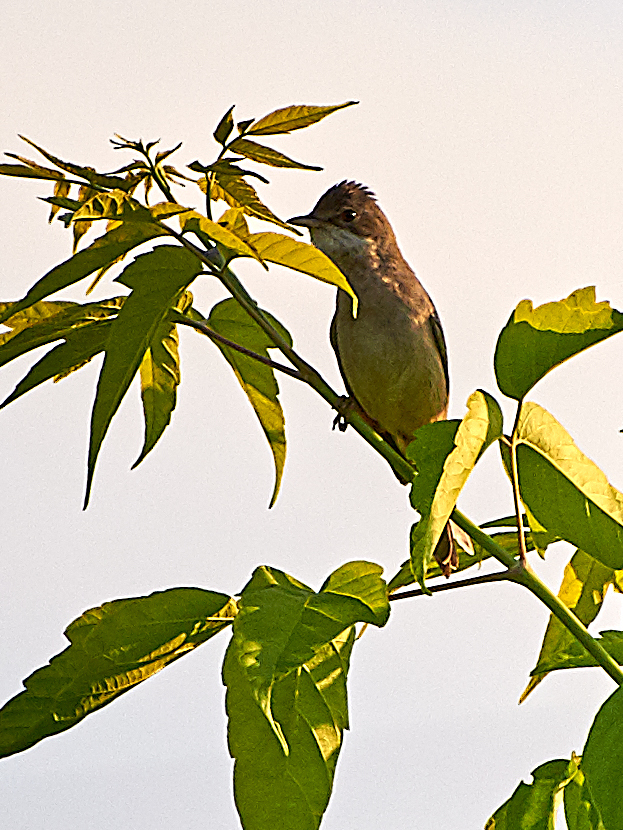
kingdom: Animalia
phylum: Chordata
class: Aves
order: Passeriformes
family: Sylviidae
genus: Sylvia
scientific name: Sylvia communis
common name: Common whitethroat
